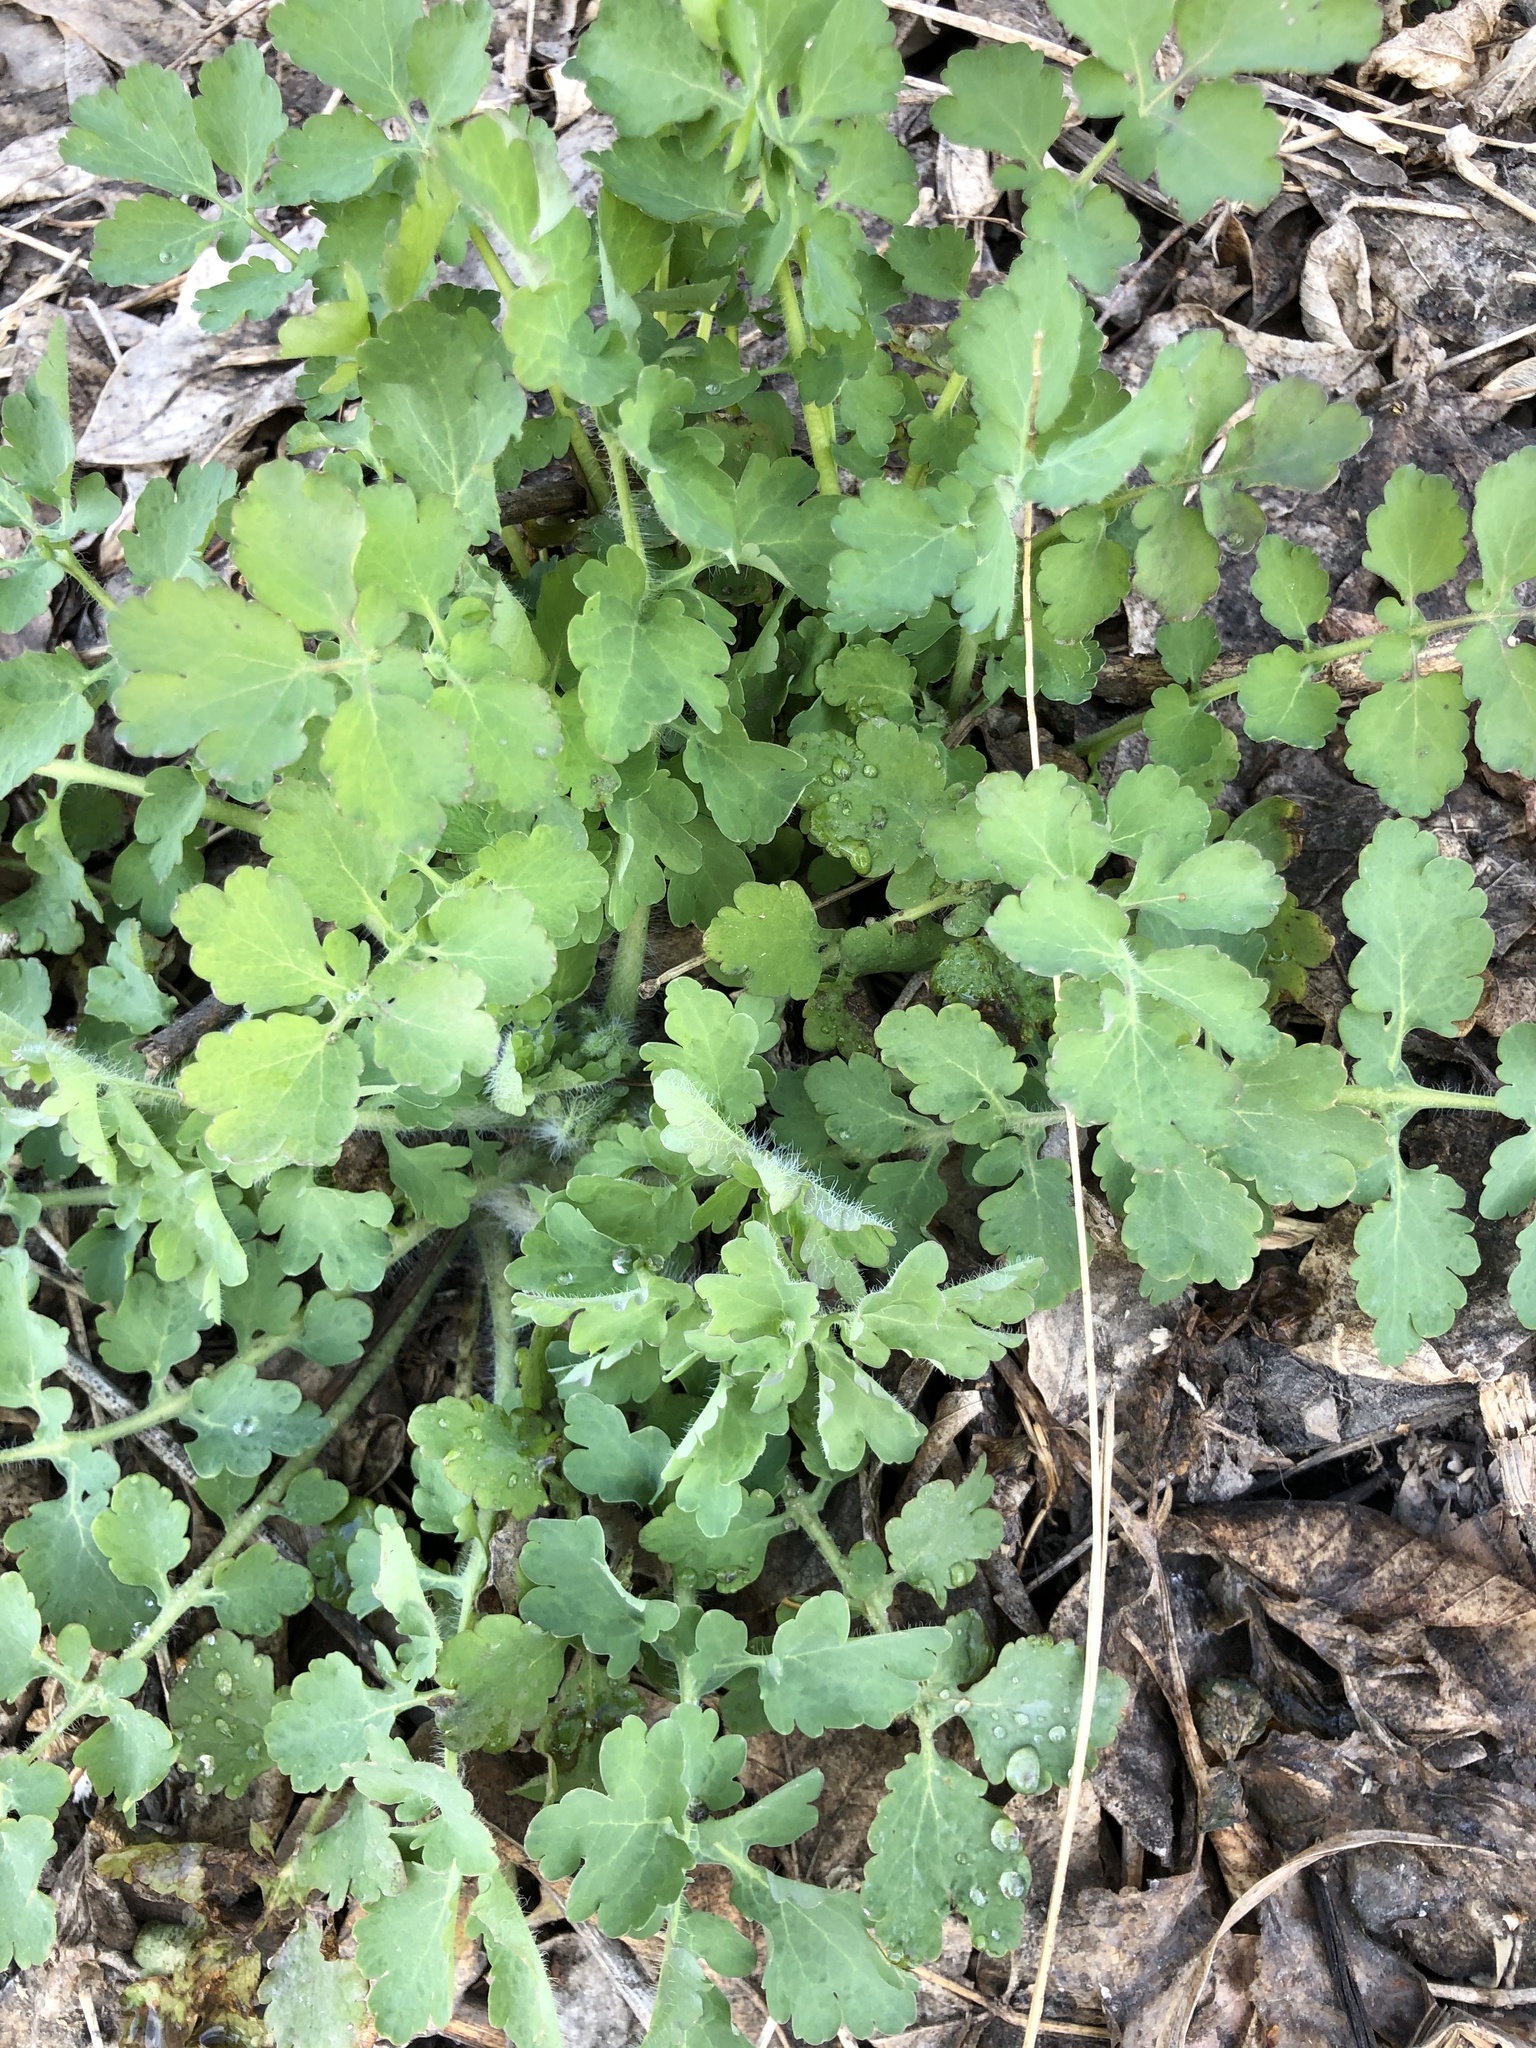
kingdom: Plantae
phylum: Tracheophyta
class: Magnoliopsida
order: Ranunculales
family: Papaveraceae
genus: Chelidonium
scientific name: Chelidonium majus
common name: Greater celandine
